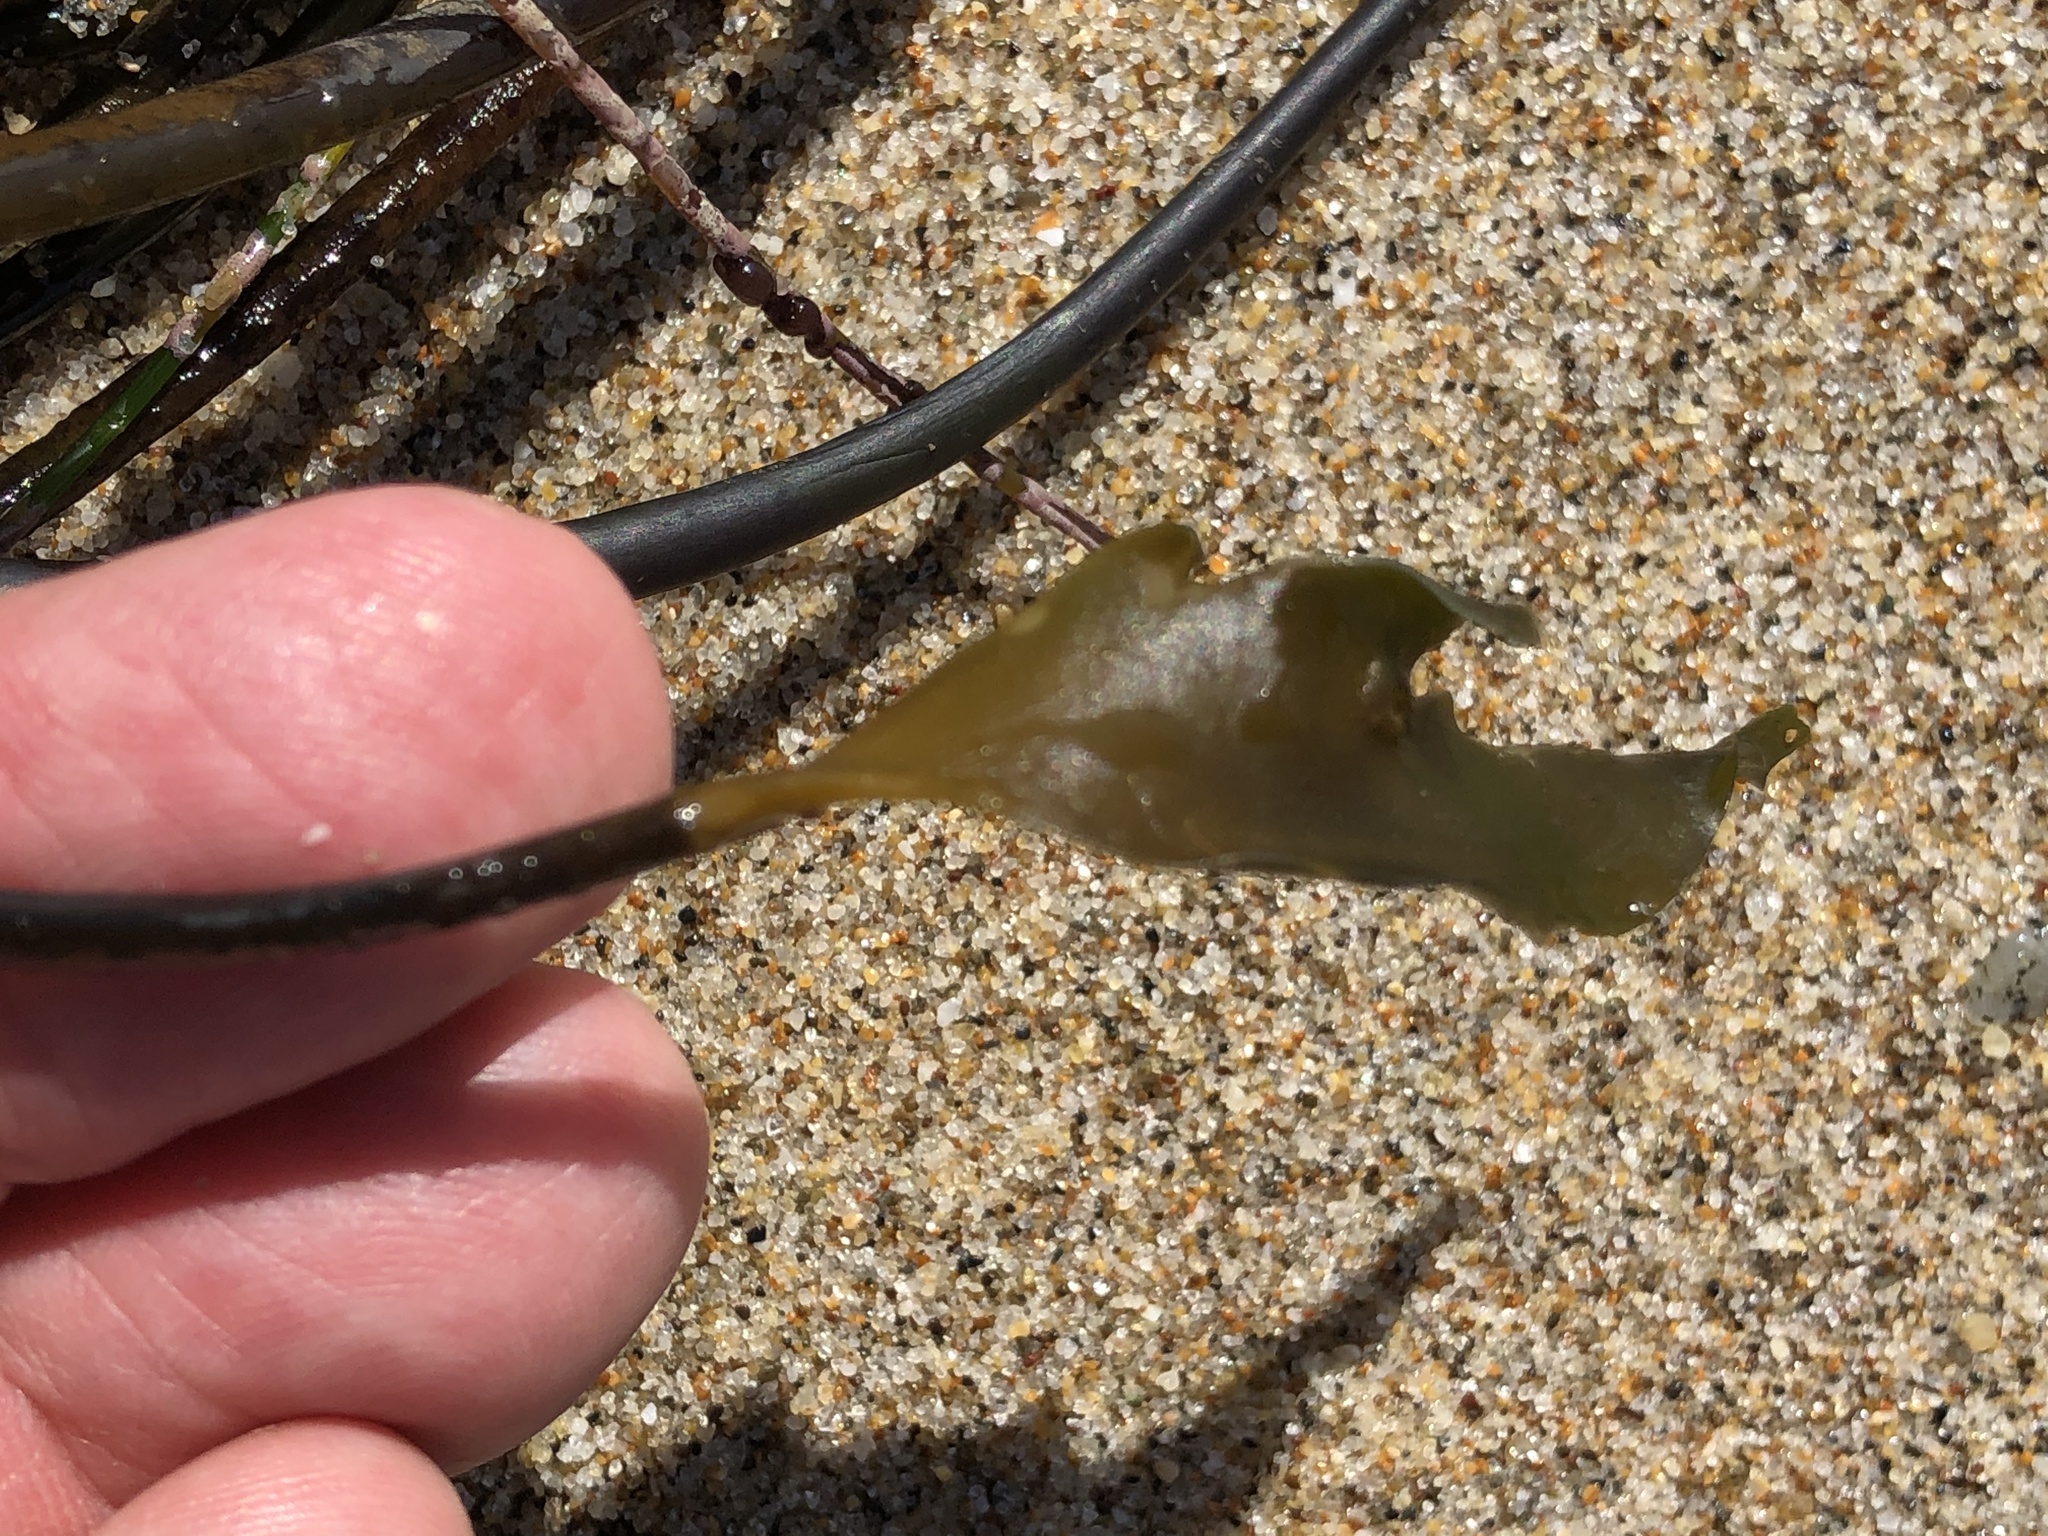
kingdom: Chromista
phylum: Ochrophyta
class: Phaeophyceae
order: Laminariales
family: Laminariaceae
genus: Laminaria
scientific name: Laminaria sinclairii
